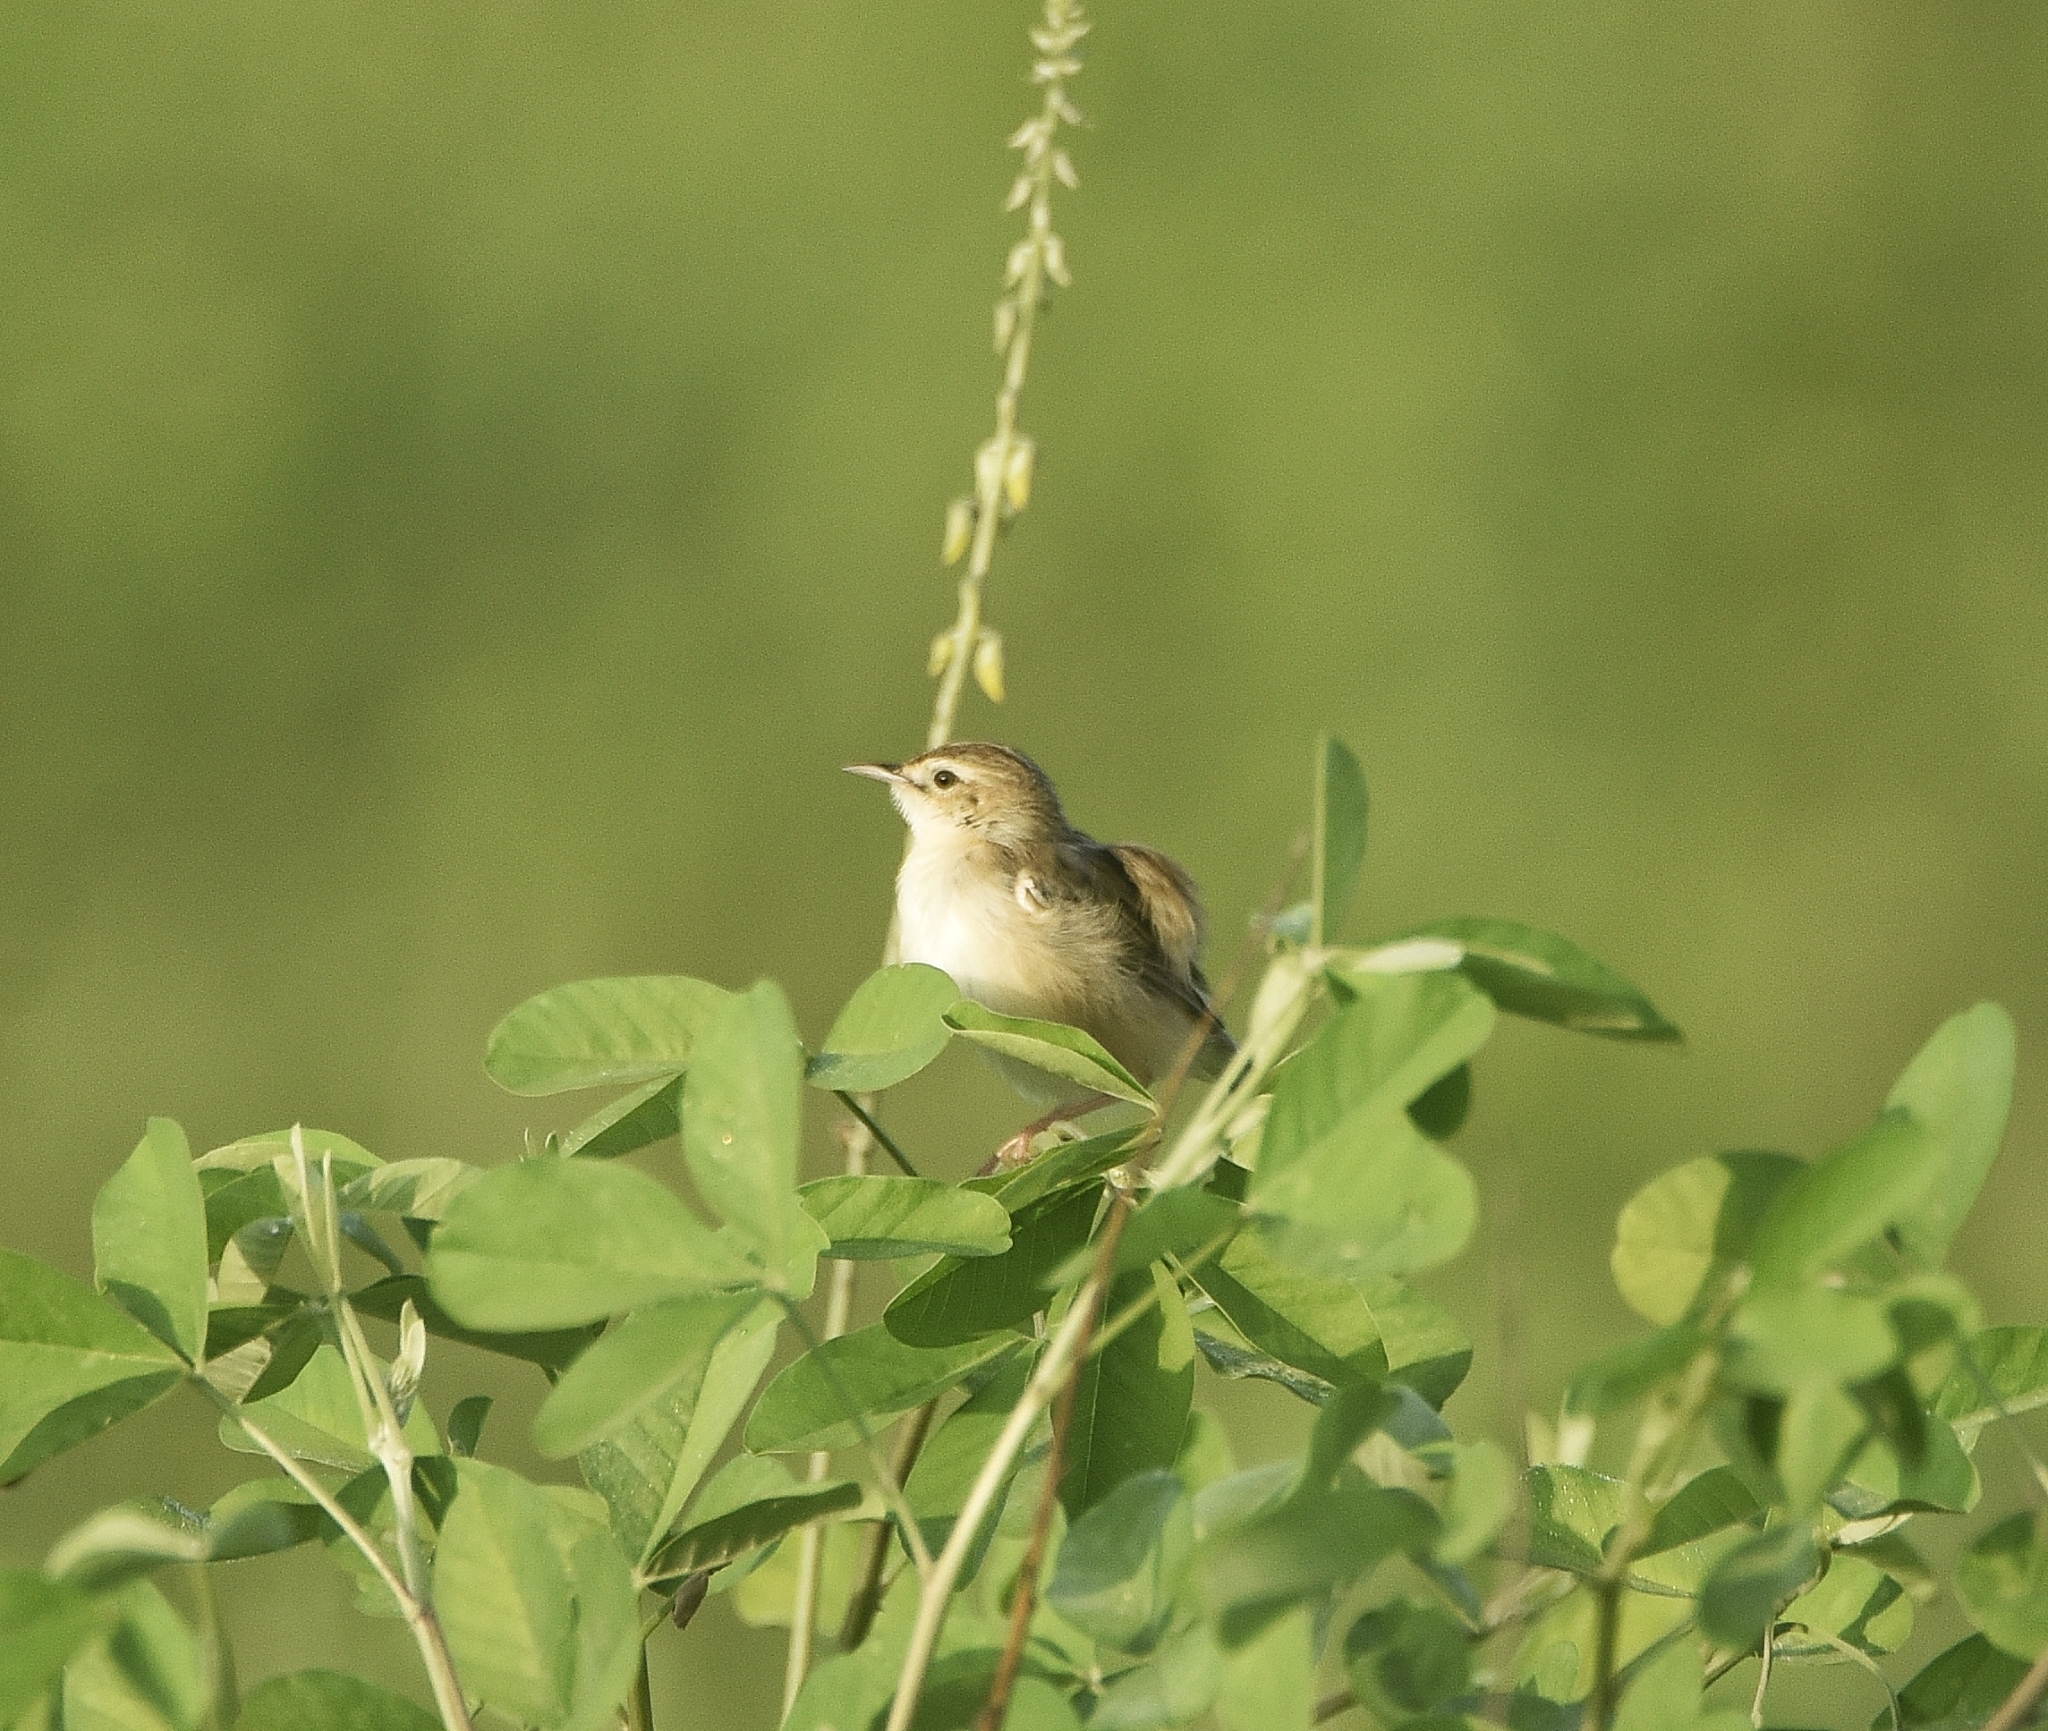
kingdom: Animalia
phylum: Chordata
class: Aves
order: Passeriformes
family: Cisticolidae
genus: Cisticola
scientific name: Cisticola juncidis
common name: Zitting cisticola
